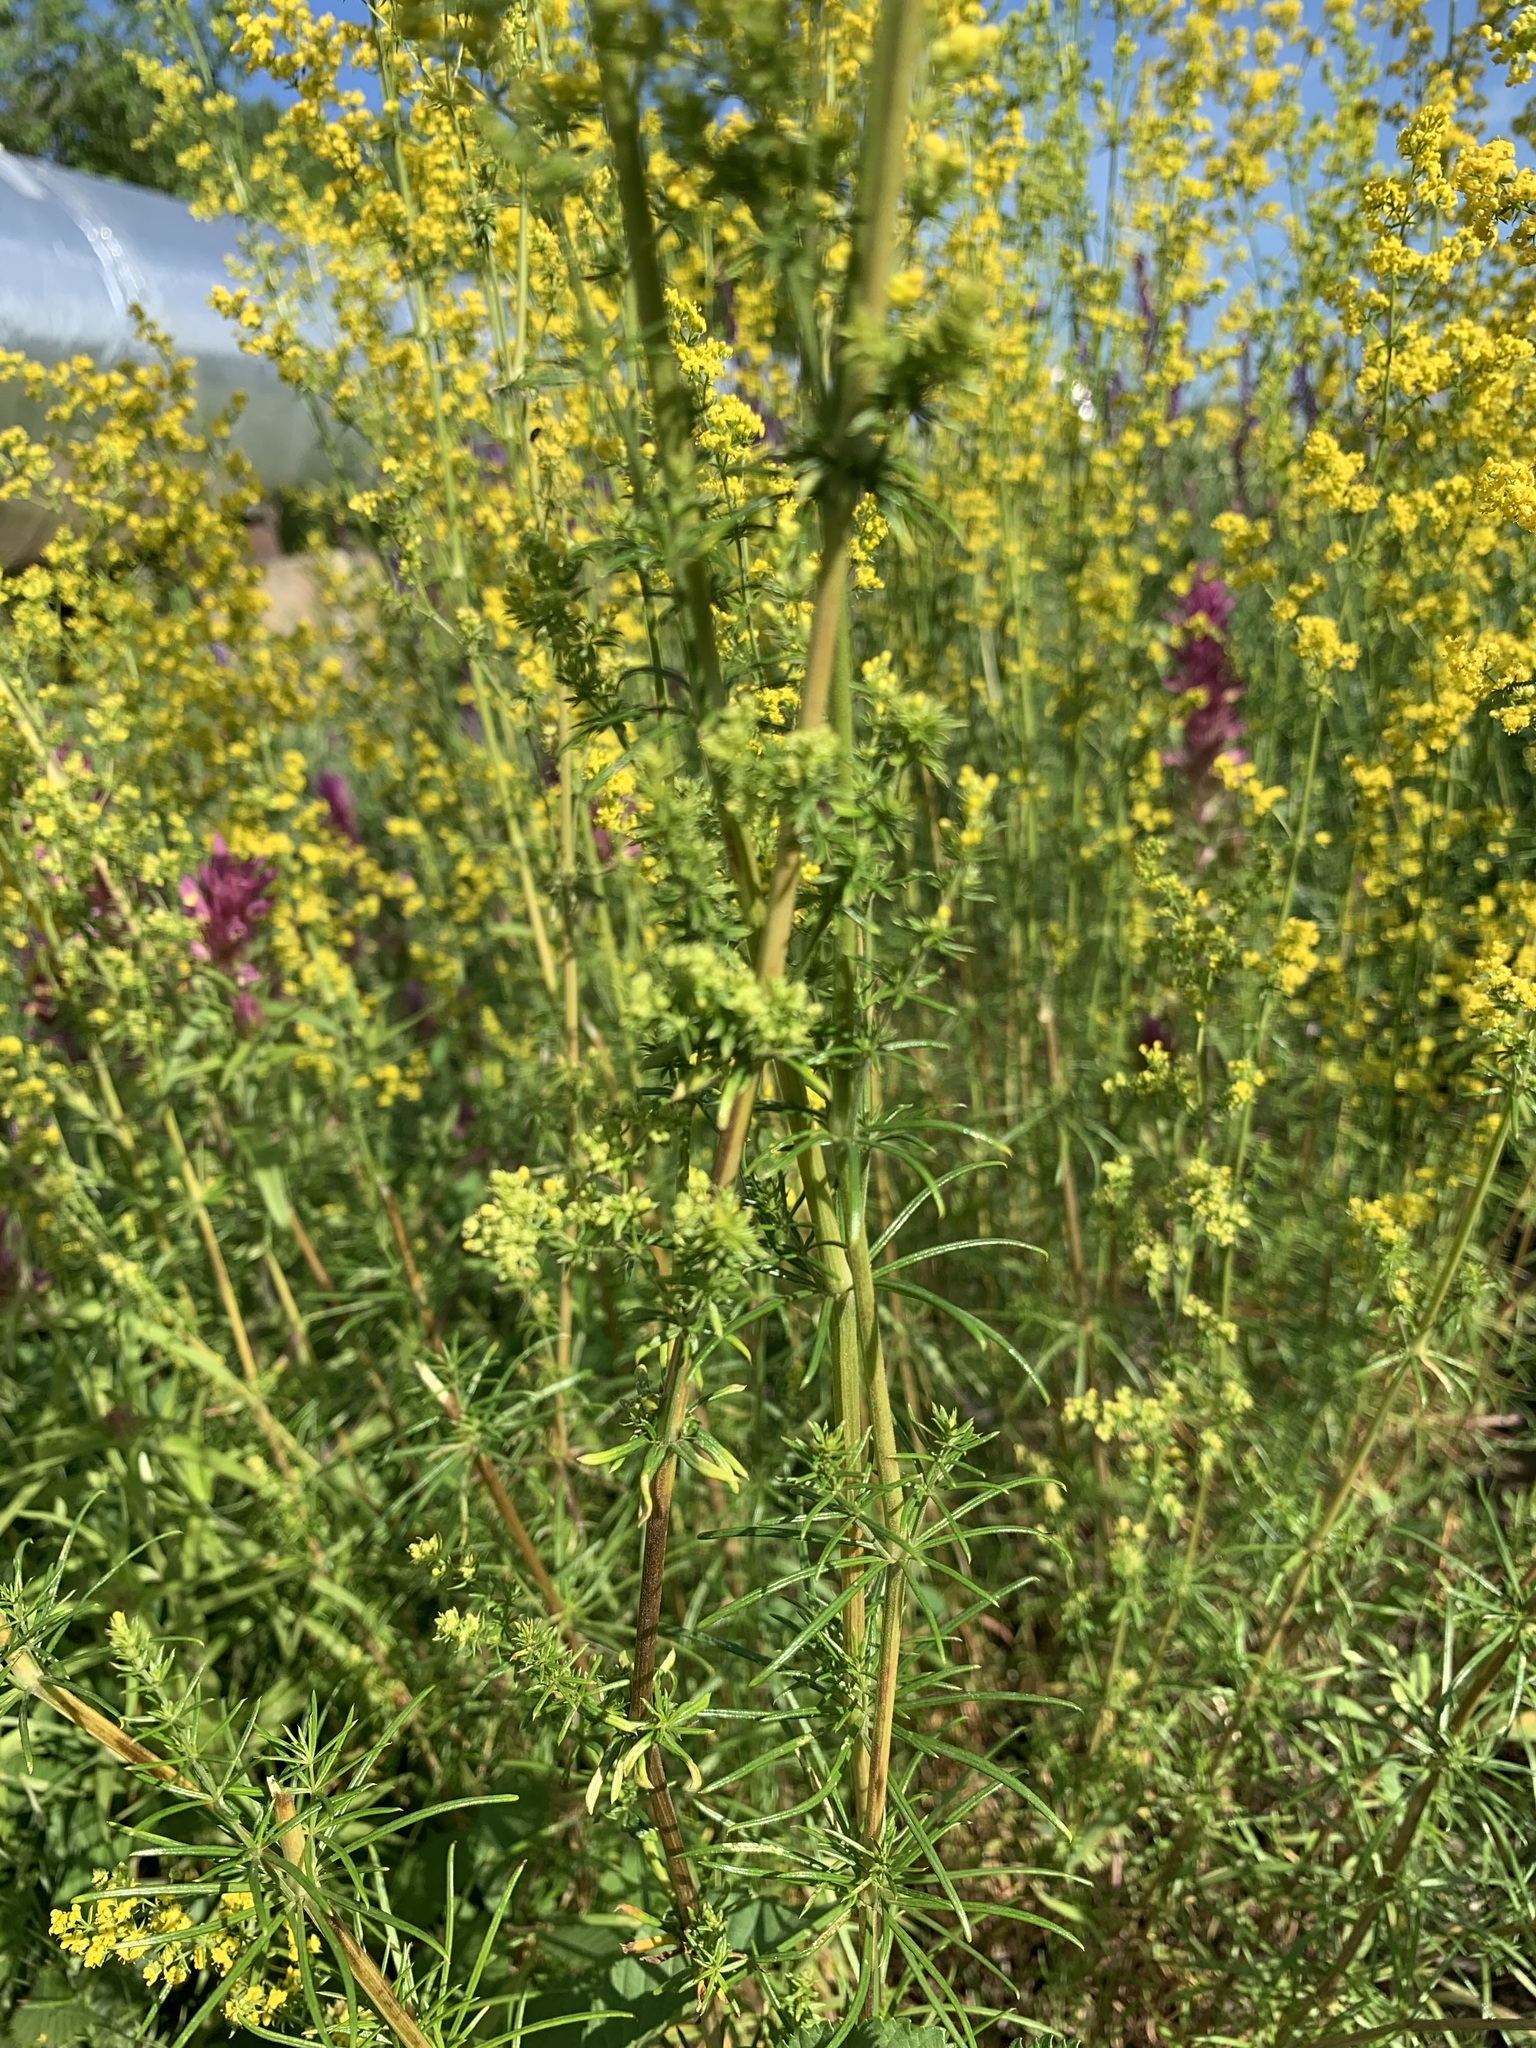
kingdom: Plantae
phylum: Tracheophyta
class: Magnoliopsida
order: Gentianales
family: Rubiaceae
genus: Galium
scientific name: Galium verum
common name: Lady's bedstraw
